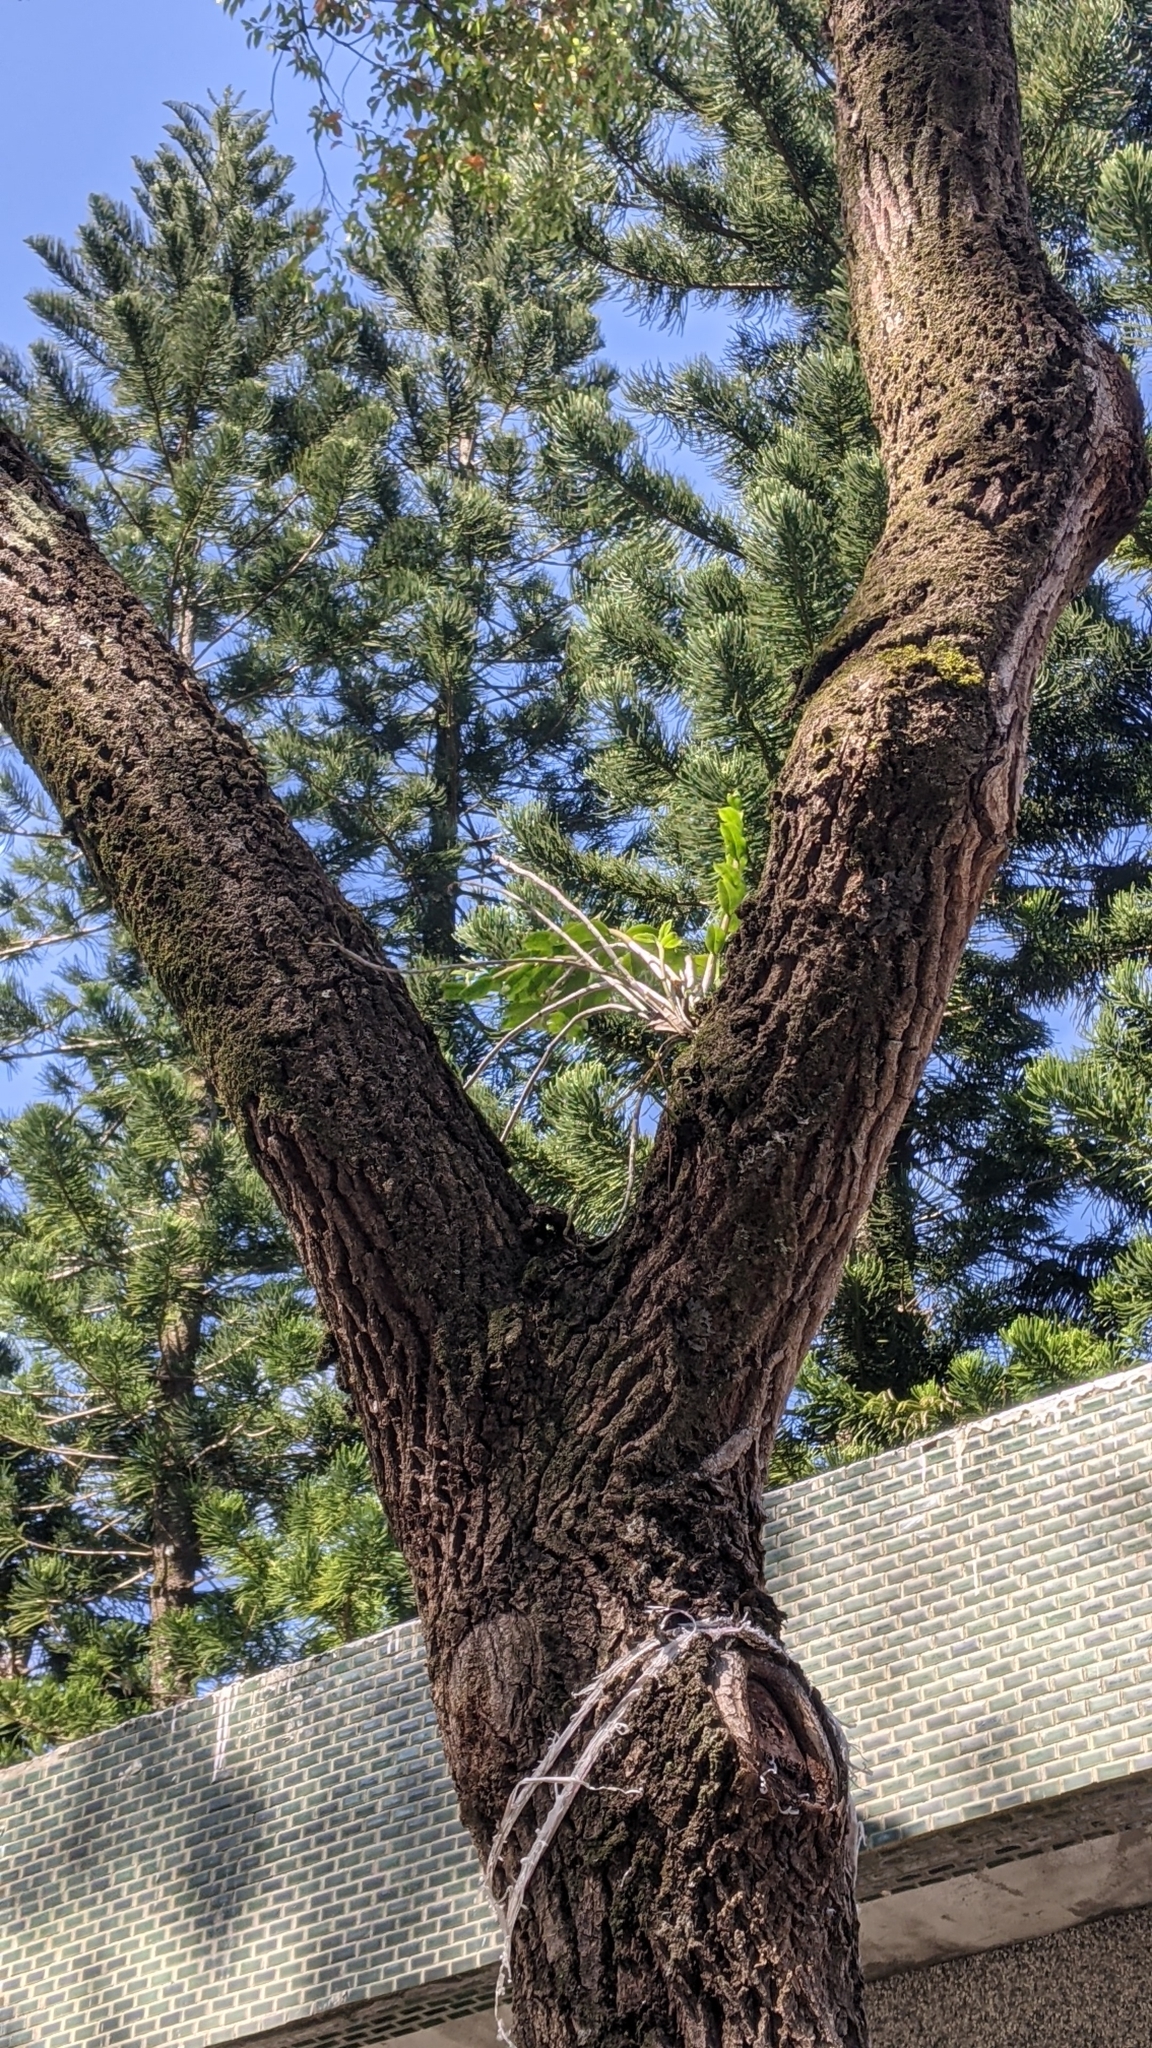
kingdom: Plantae
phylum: Tracheophyta
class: Liliopsida
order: Asparagales
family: Orchidaceae
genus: Dendrobium
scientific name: Dendrobium officinale
